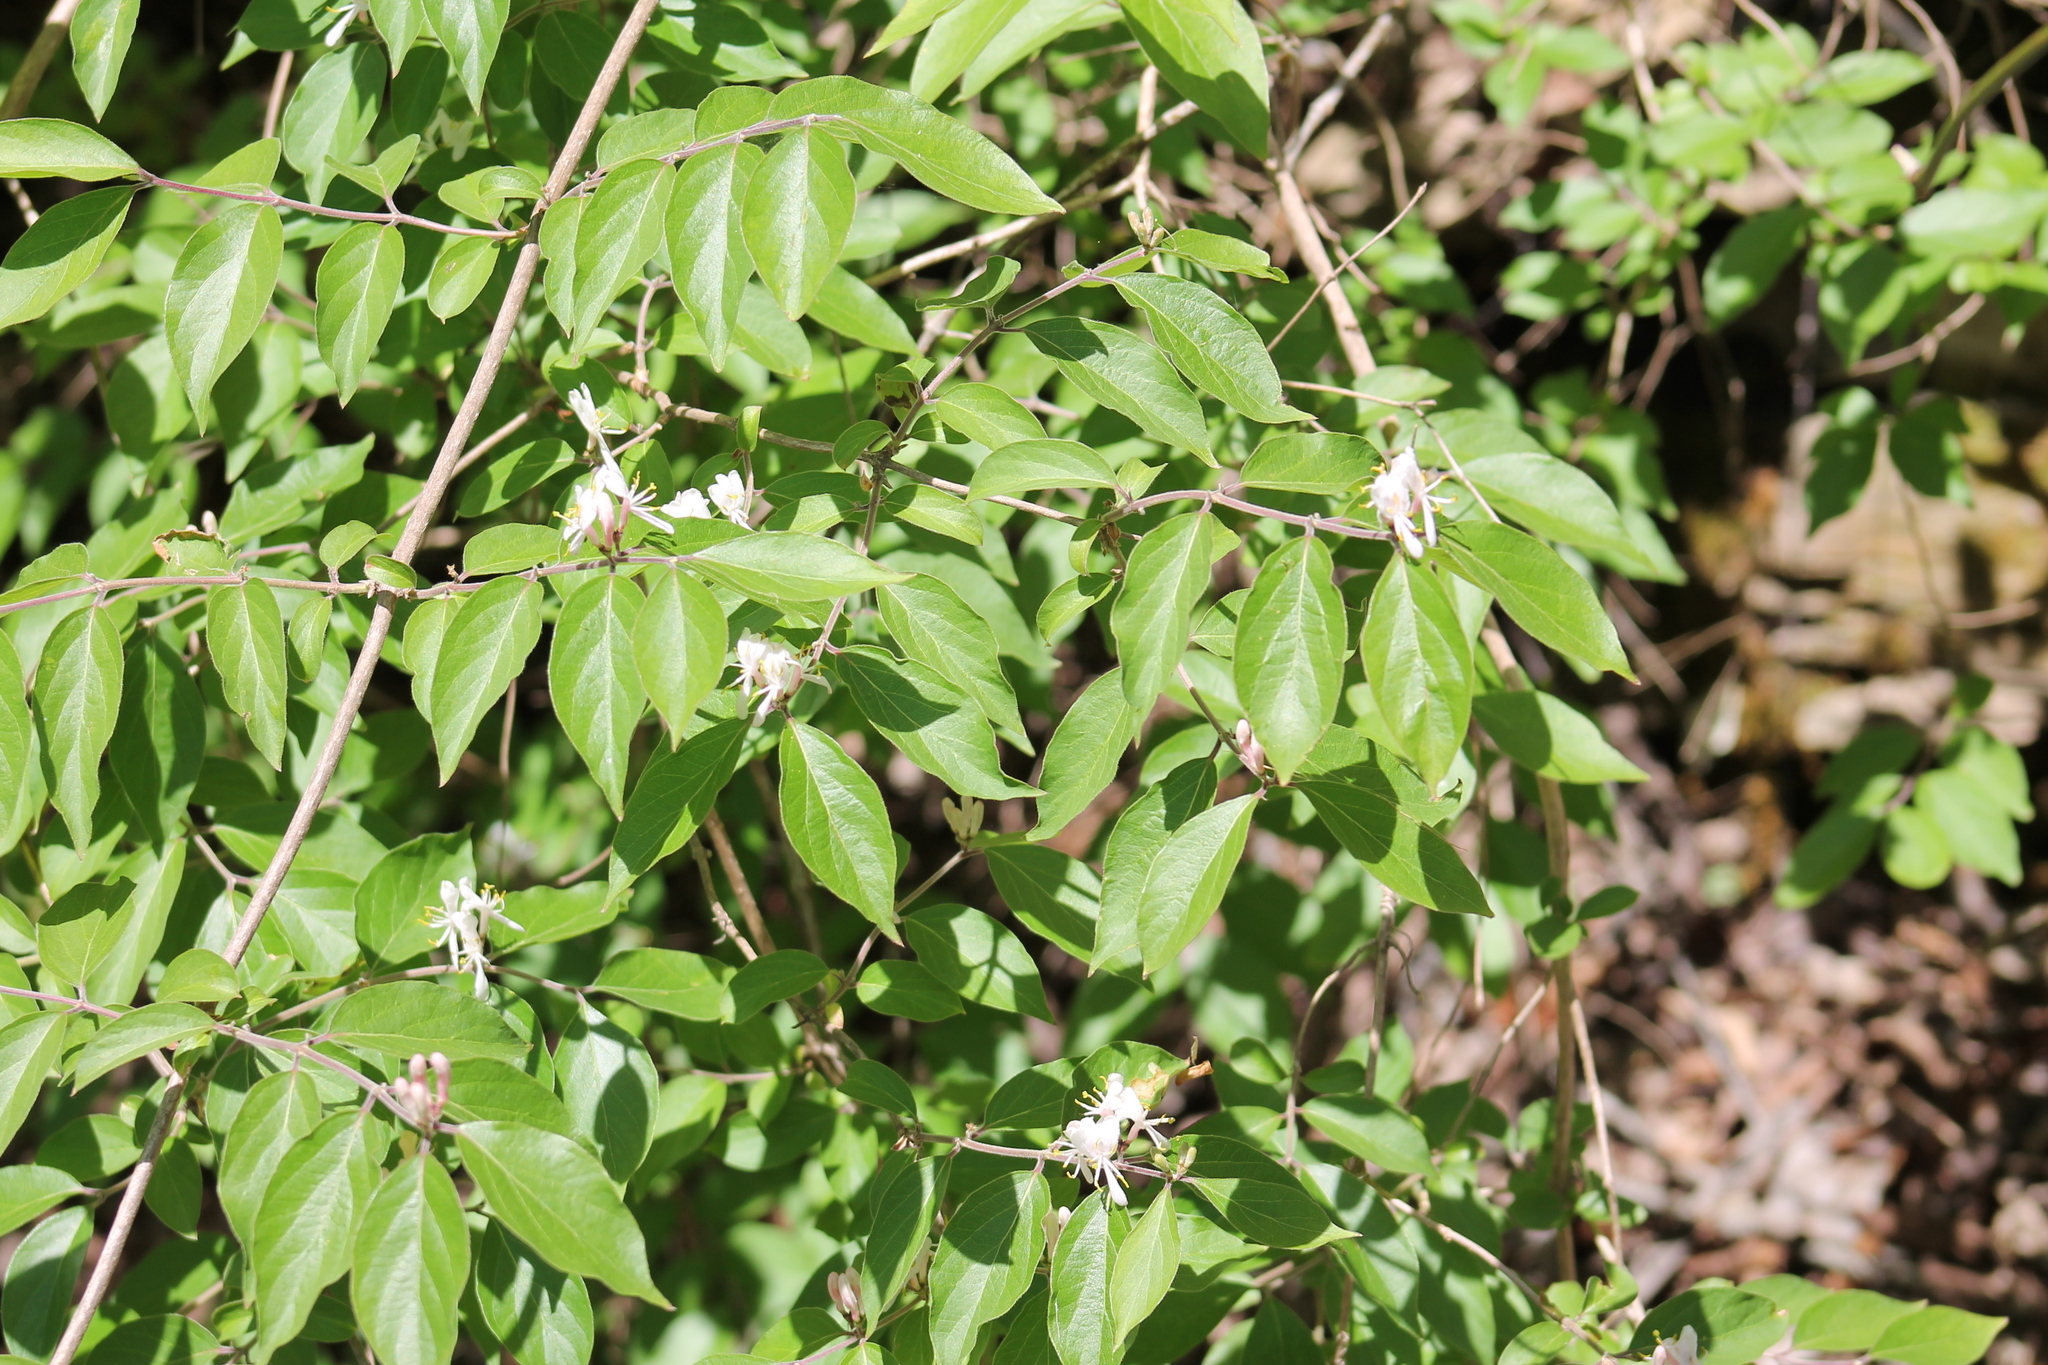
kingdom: Plantae
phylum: Tracheophyta
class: Magnoliopsida
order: Dipsacales
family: Caprifoliaceae
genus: Lonicera
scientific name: Lonicera maackii
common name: Amur honeysuckle
